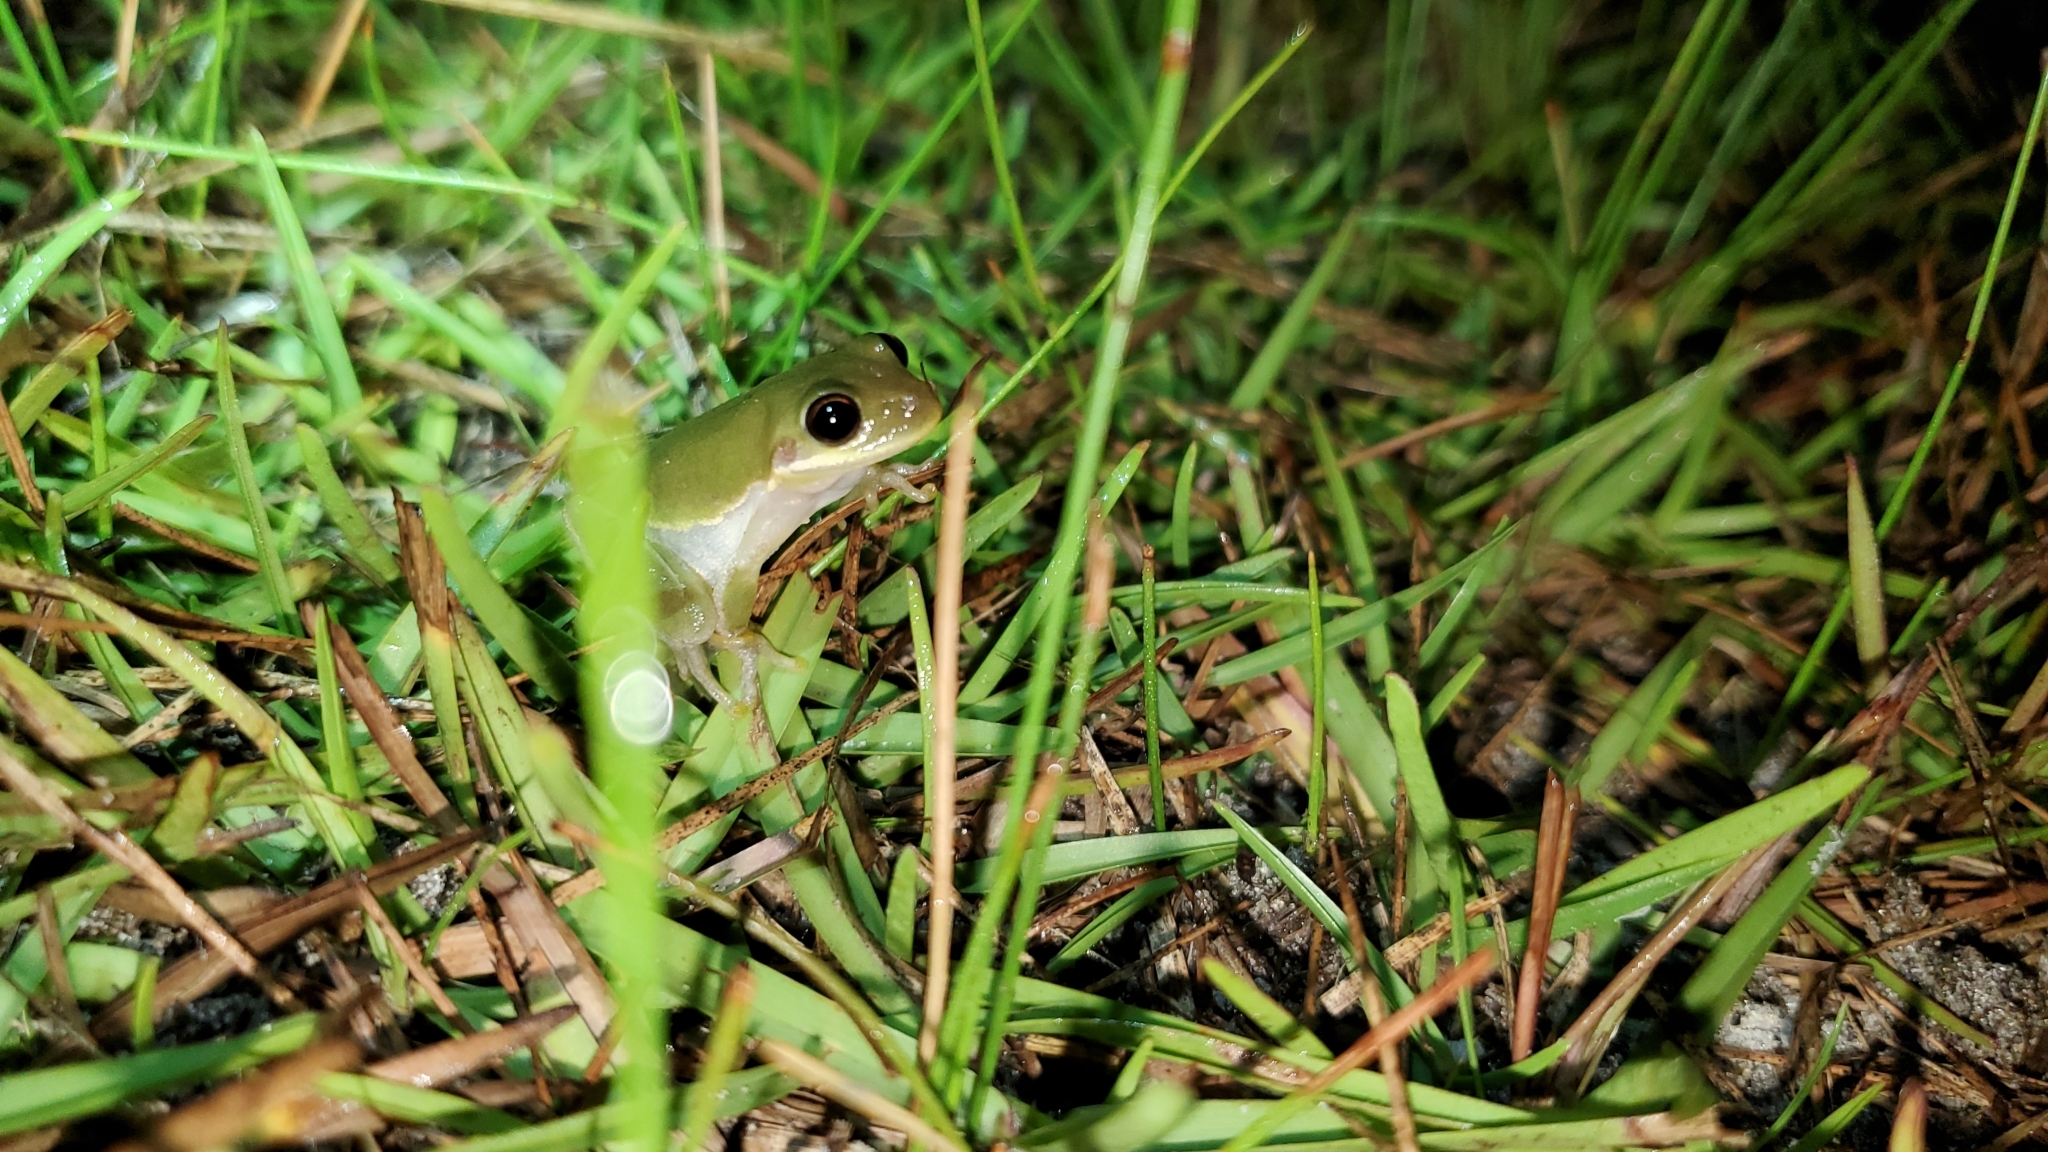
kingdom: Animalia
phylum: Chordata
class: Amphibia
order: Anura
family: Hylidae
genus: Dryophytes
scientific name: Dryophytes squirellus
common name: Squirrel treefrog
